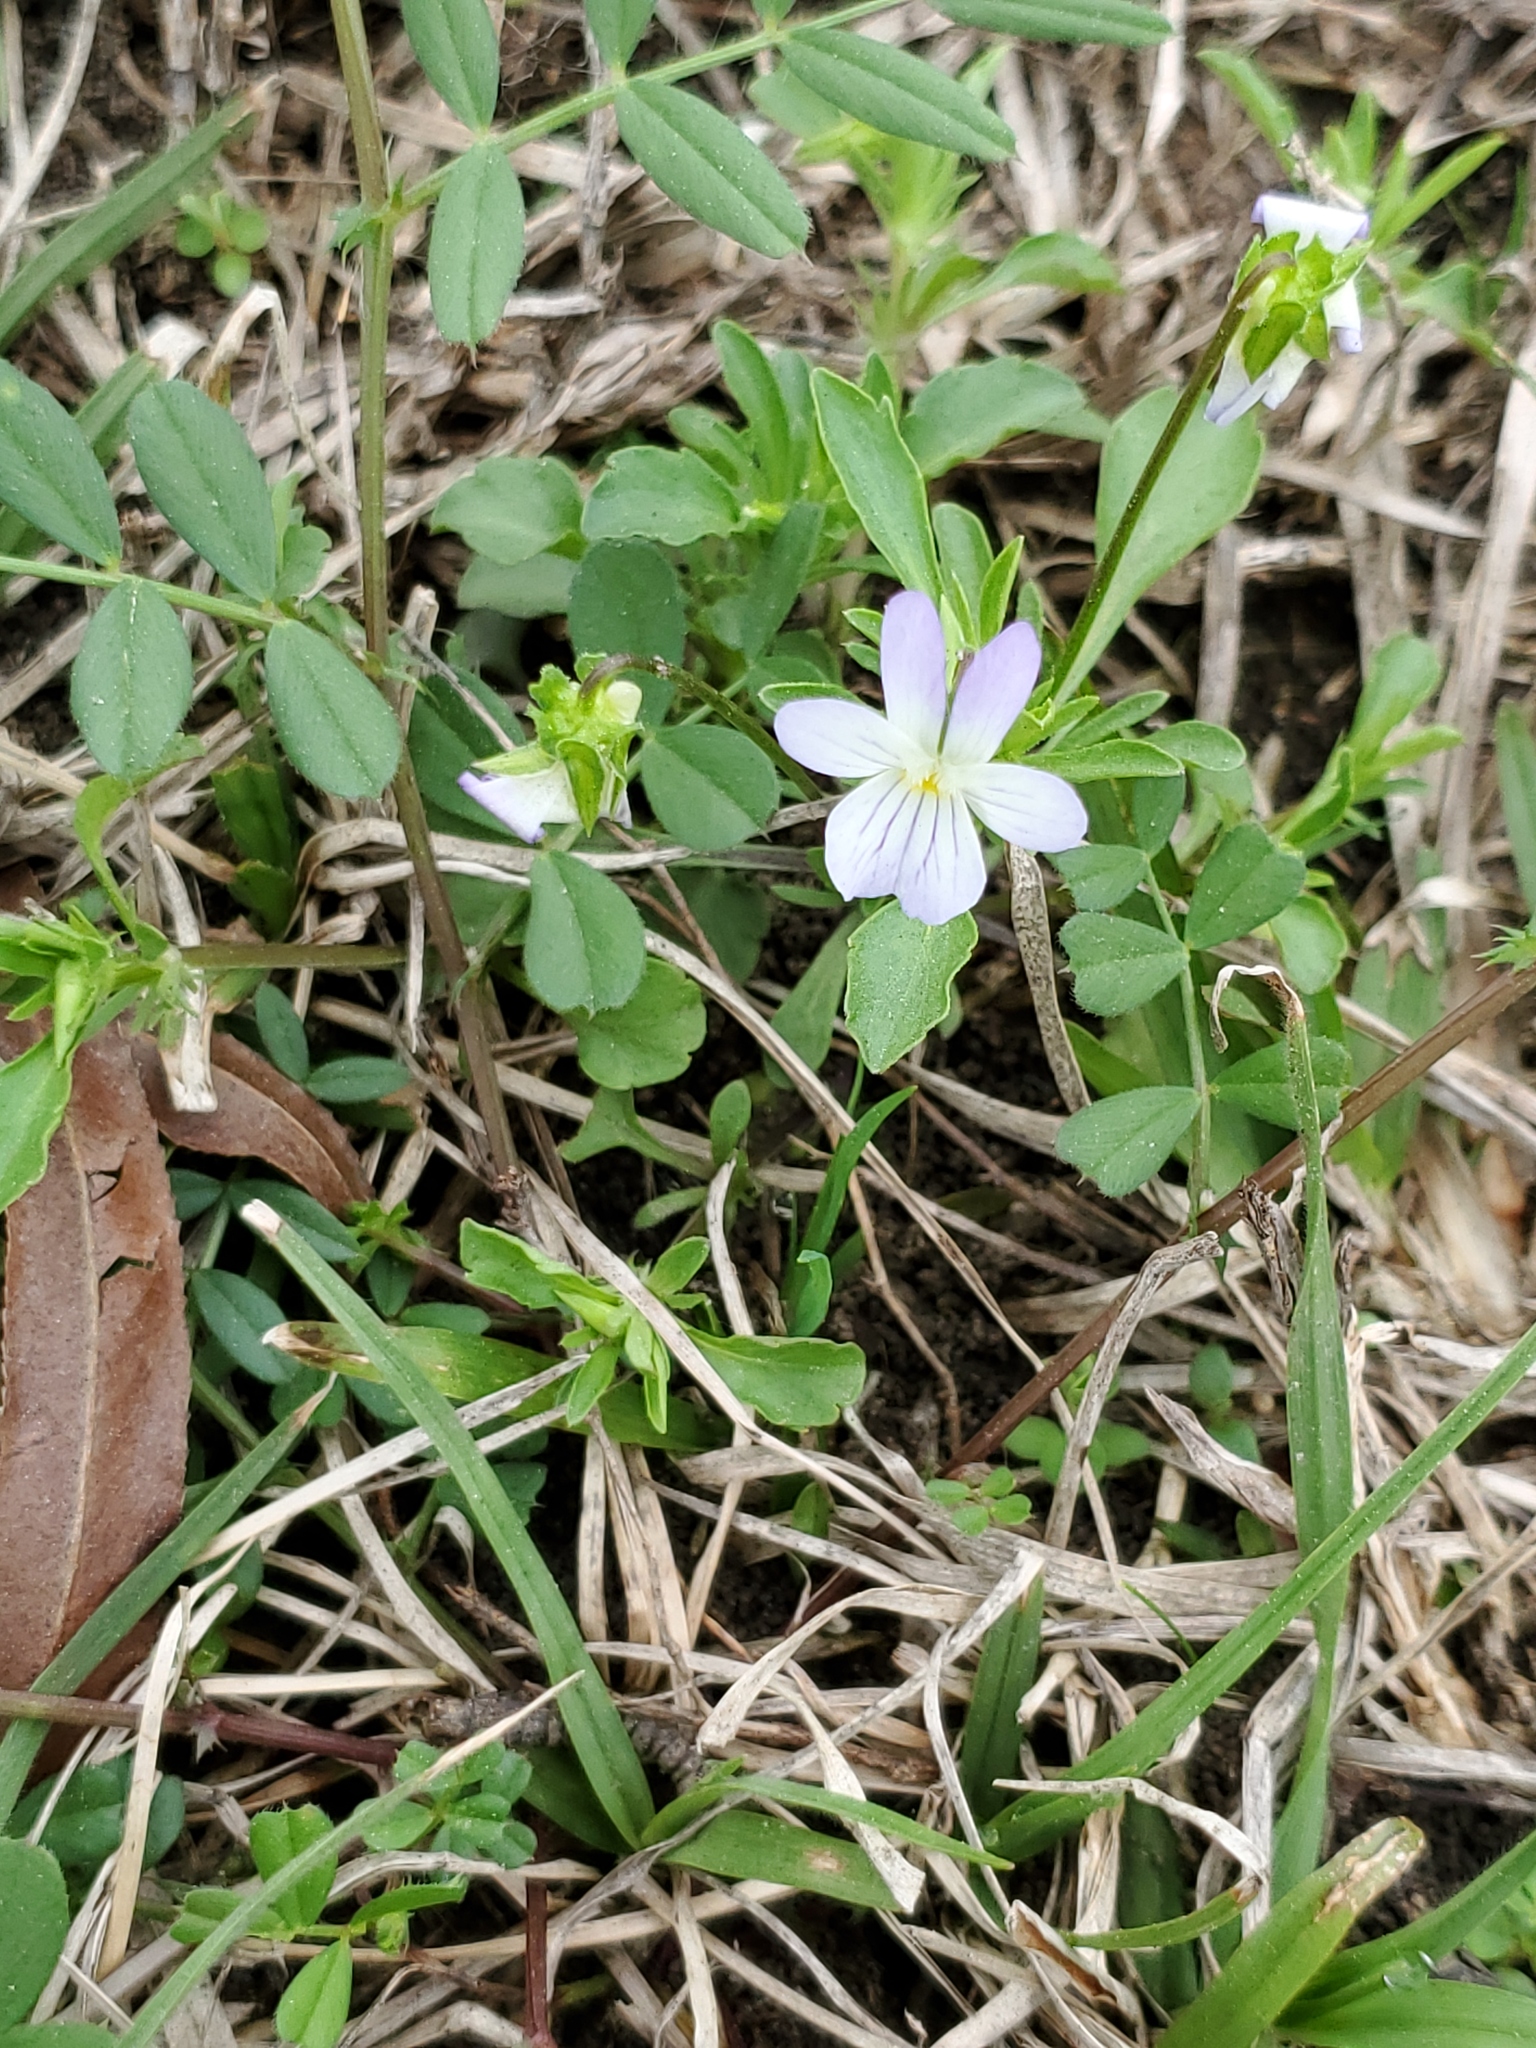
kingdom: Plantae
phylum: Tracheophyta
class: Magnoliopsida
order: Malpighiales
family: Violaceae
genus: Viola
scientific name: Viola rafinesquei
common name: American field pansy
